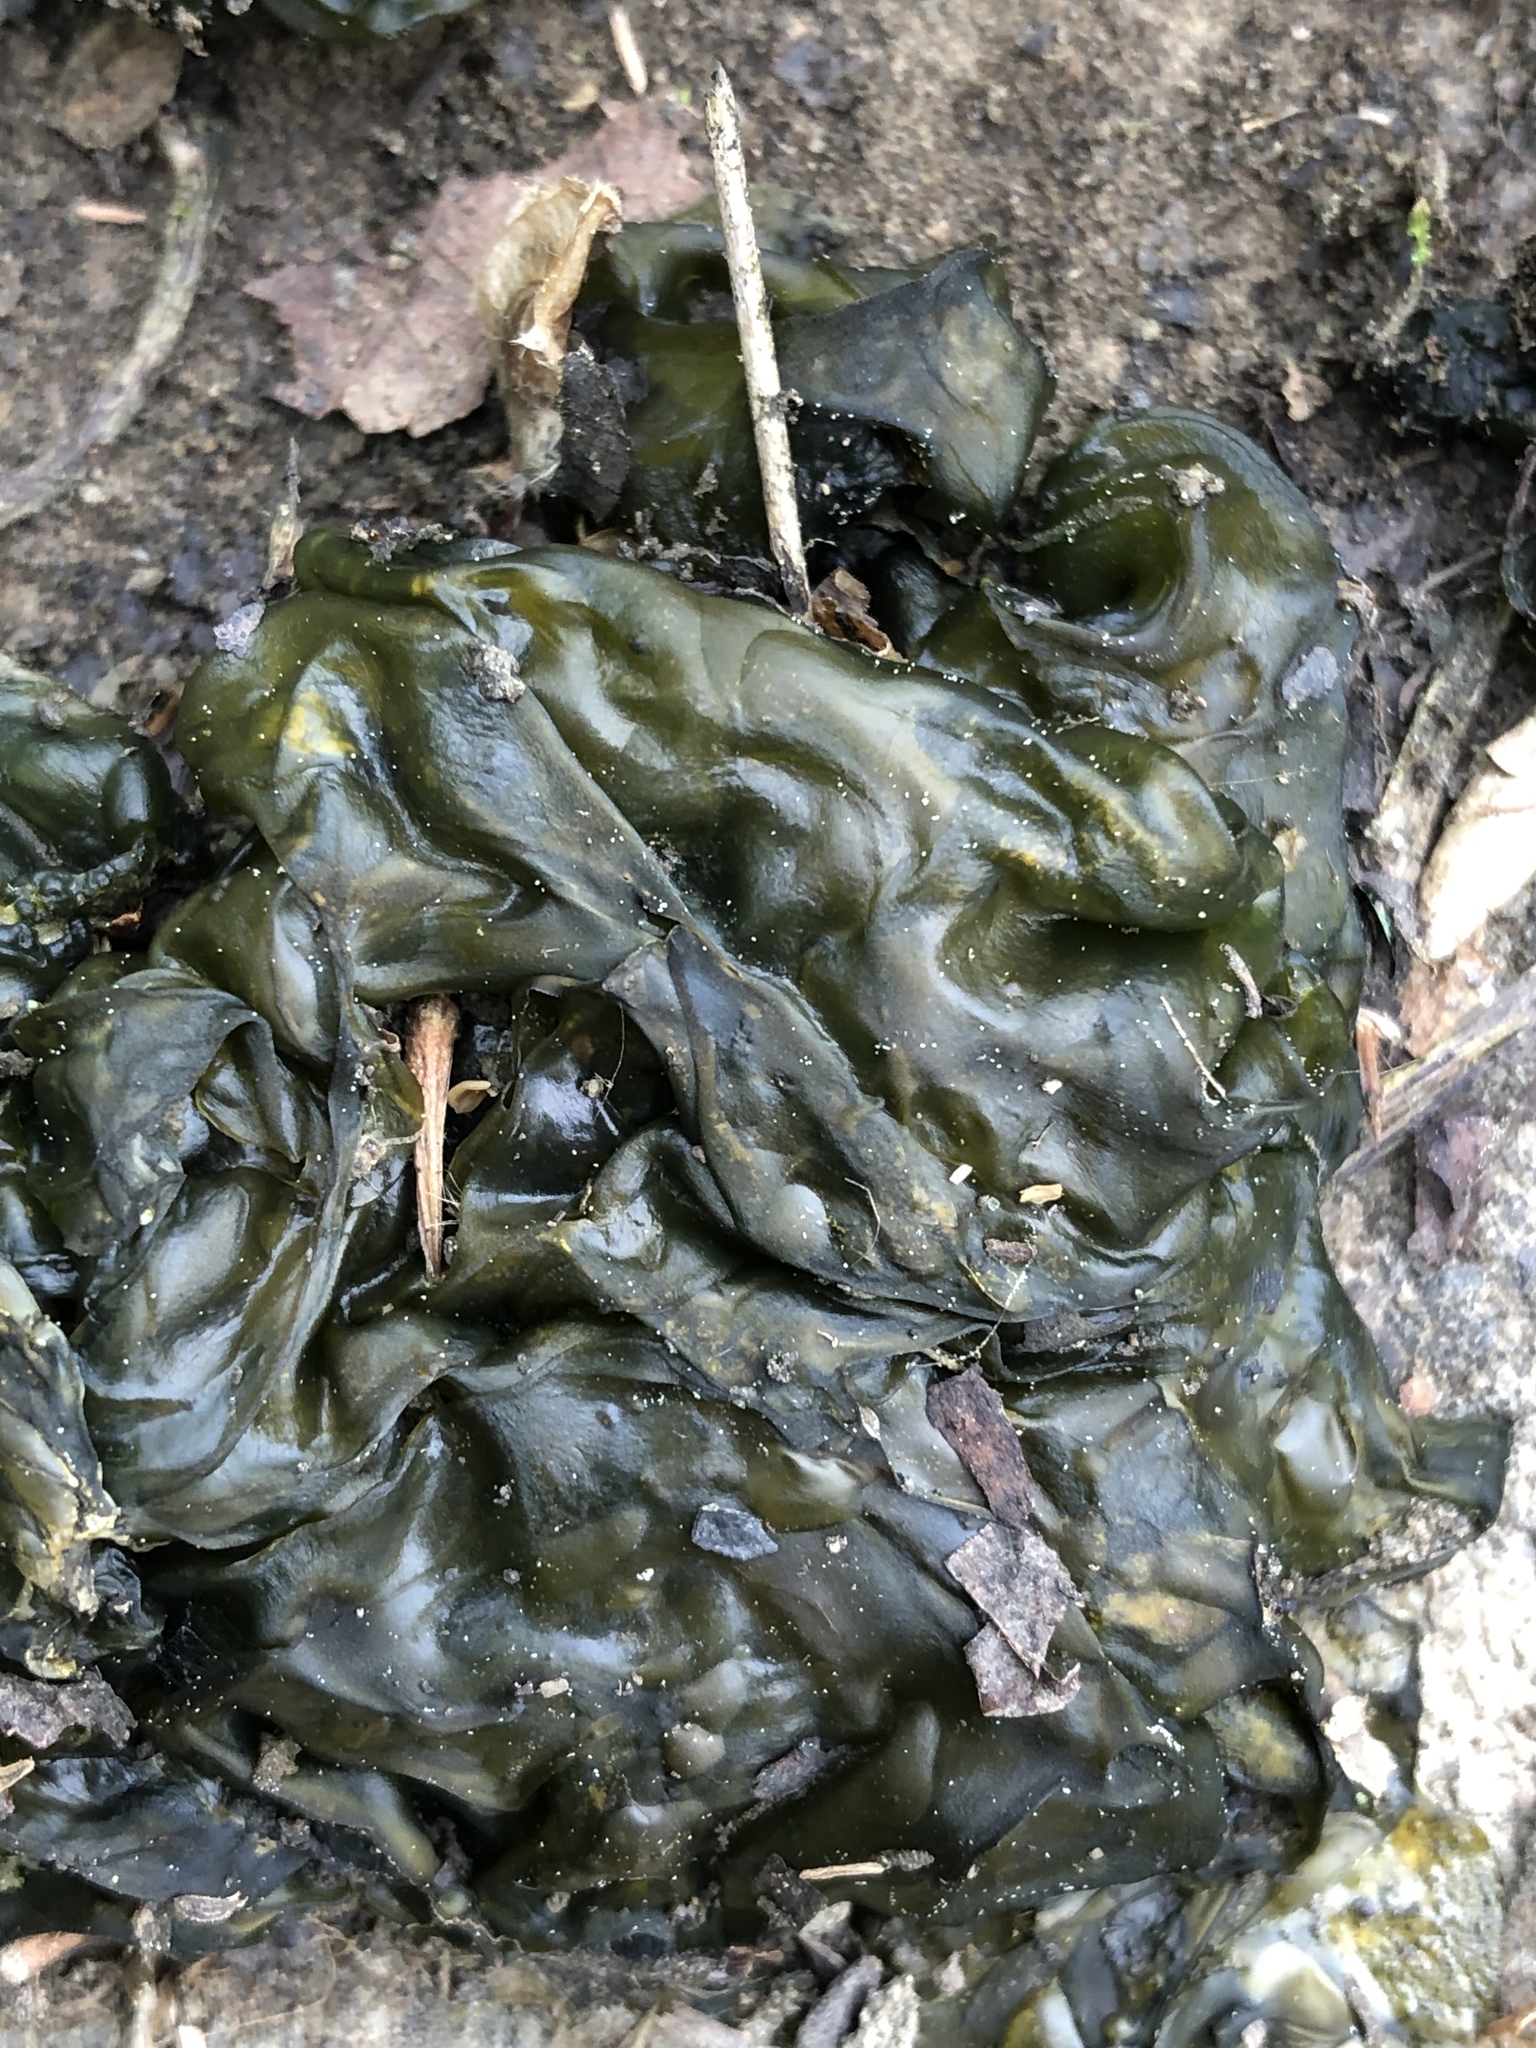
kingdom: Bacteria
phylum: Cyanobacteria
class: Cyanobacteriia
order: Cyanobacteriales
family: Nostocaceae
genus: Nostoc
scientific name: Nostoc commune
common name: Star jelly
